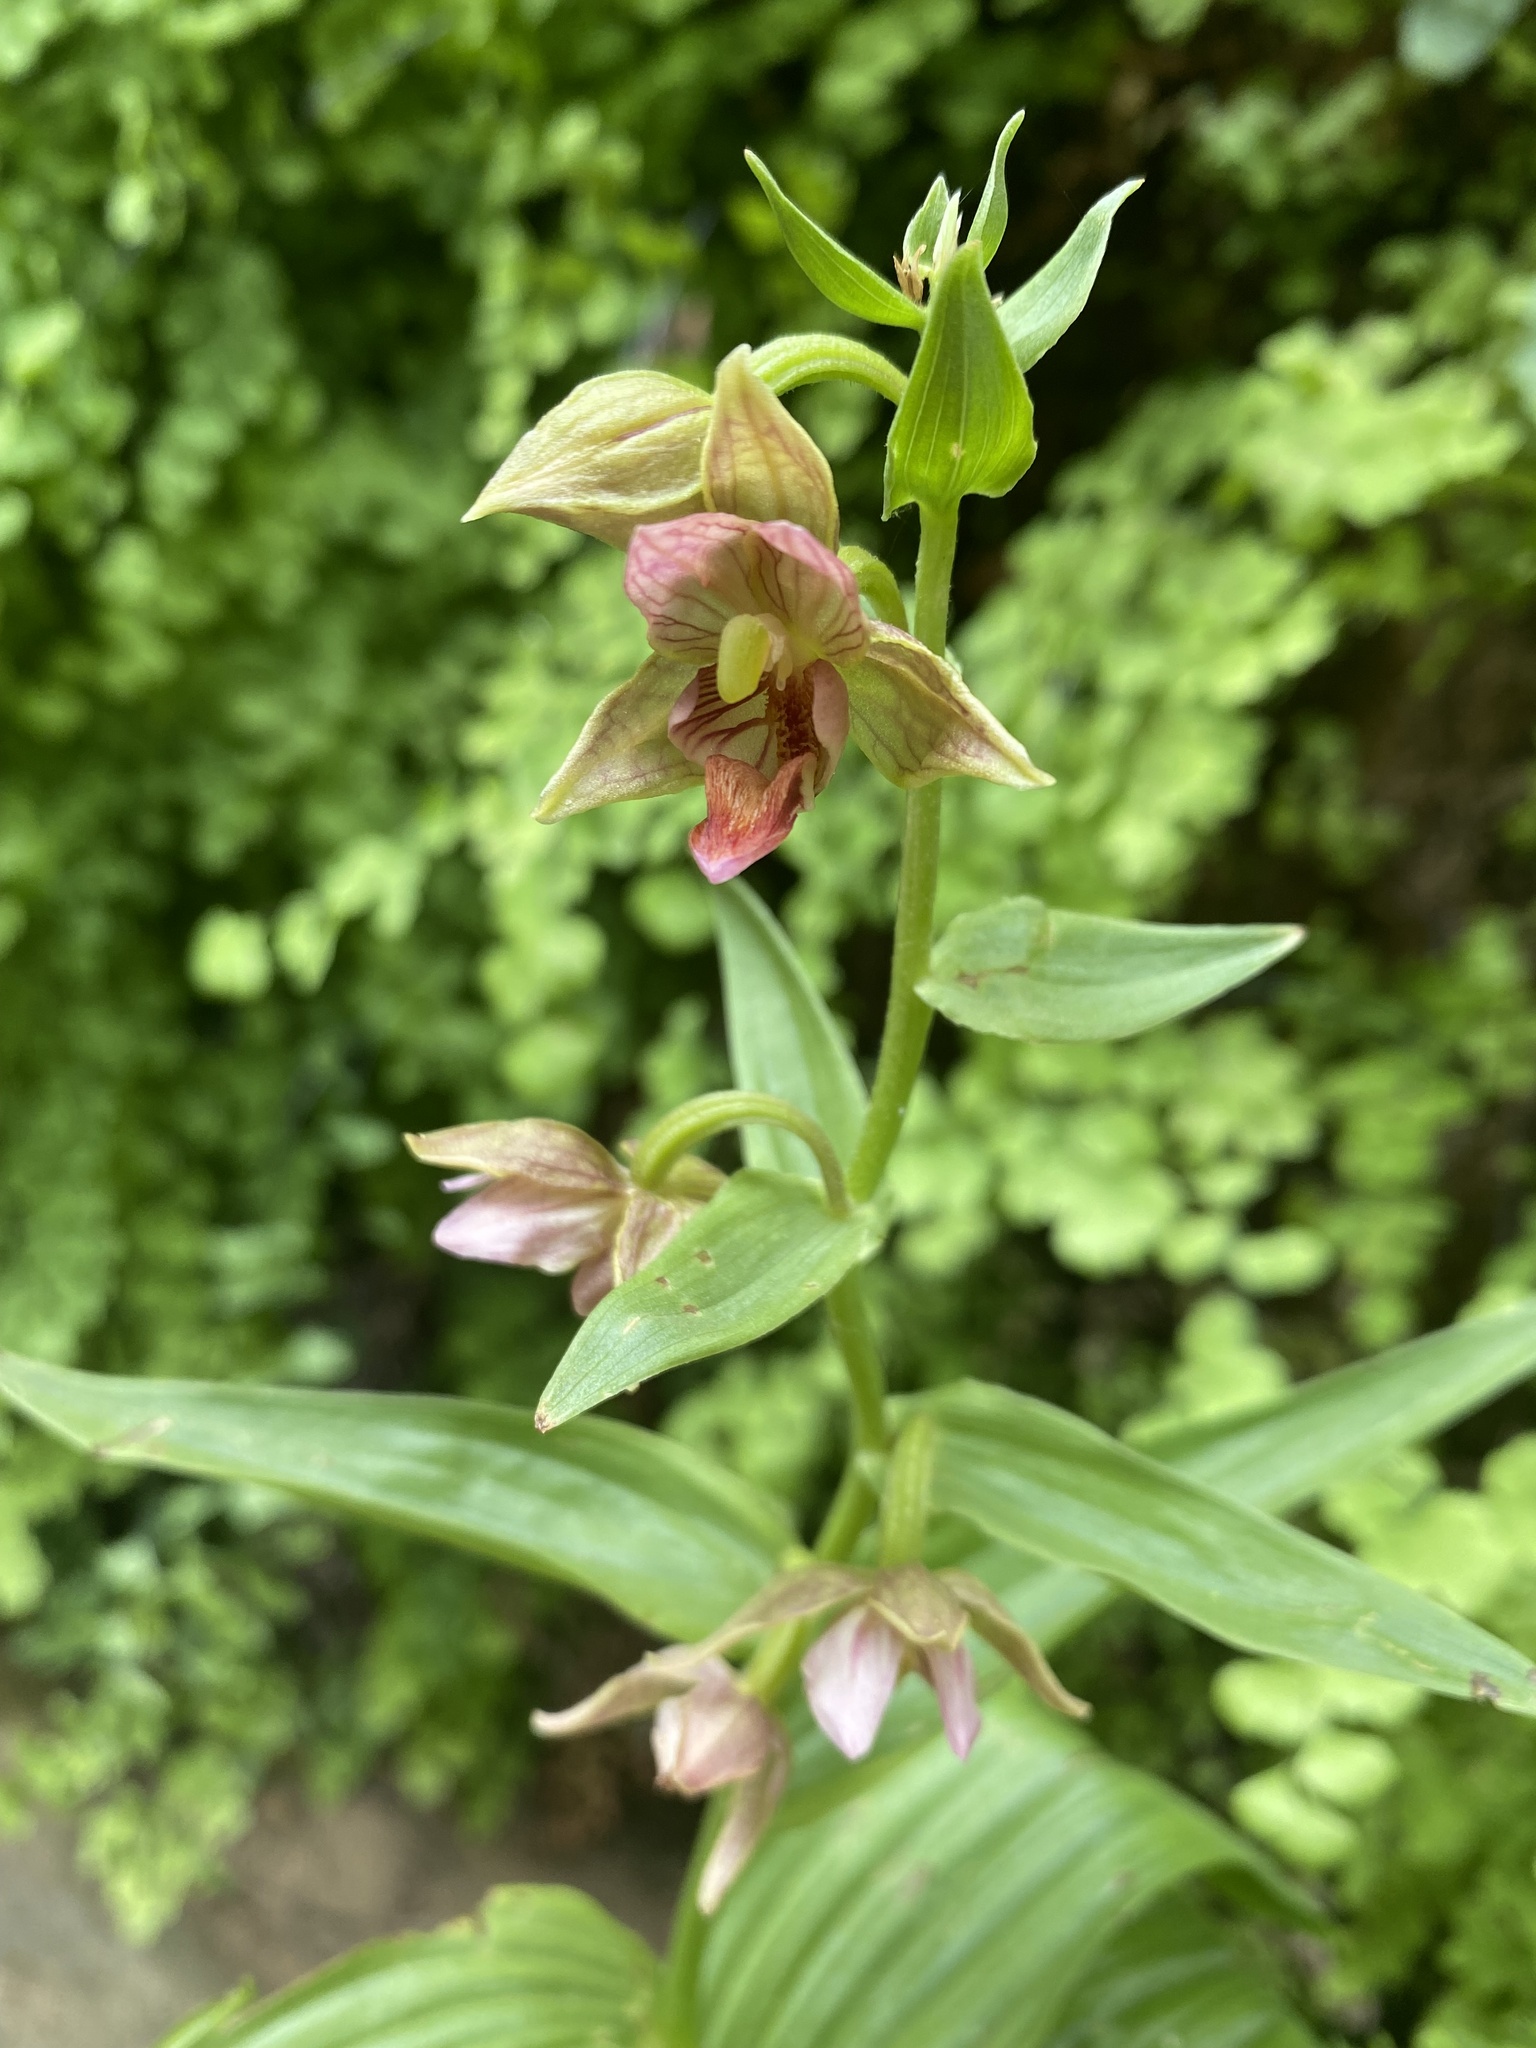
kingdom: Plantae
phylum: Tracheophyta
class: Liliopsida
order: Asparagales
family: Orchidaceae
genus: Epipactis
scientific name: Epipactis gigantea
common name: Chatterbox
